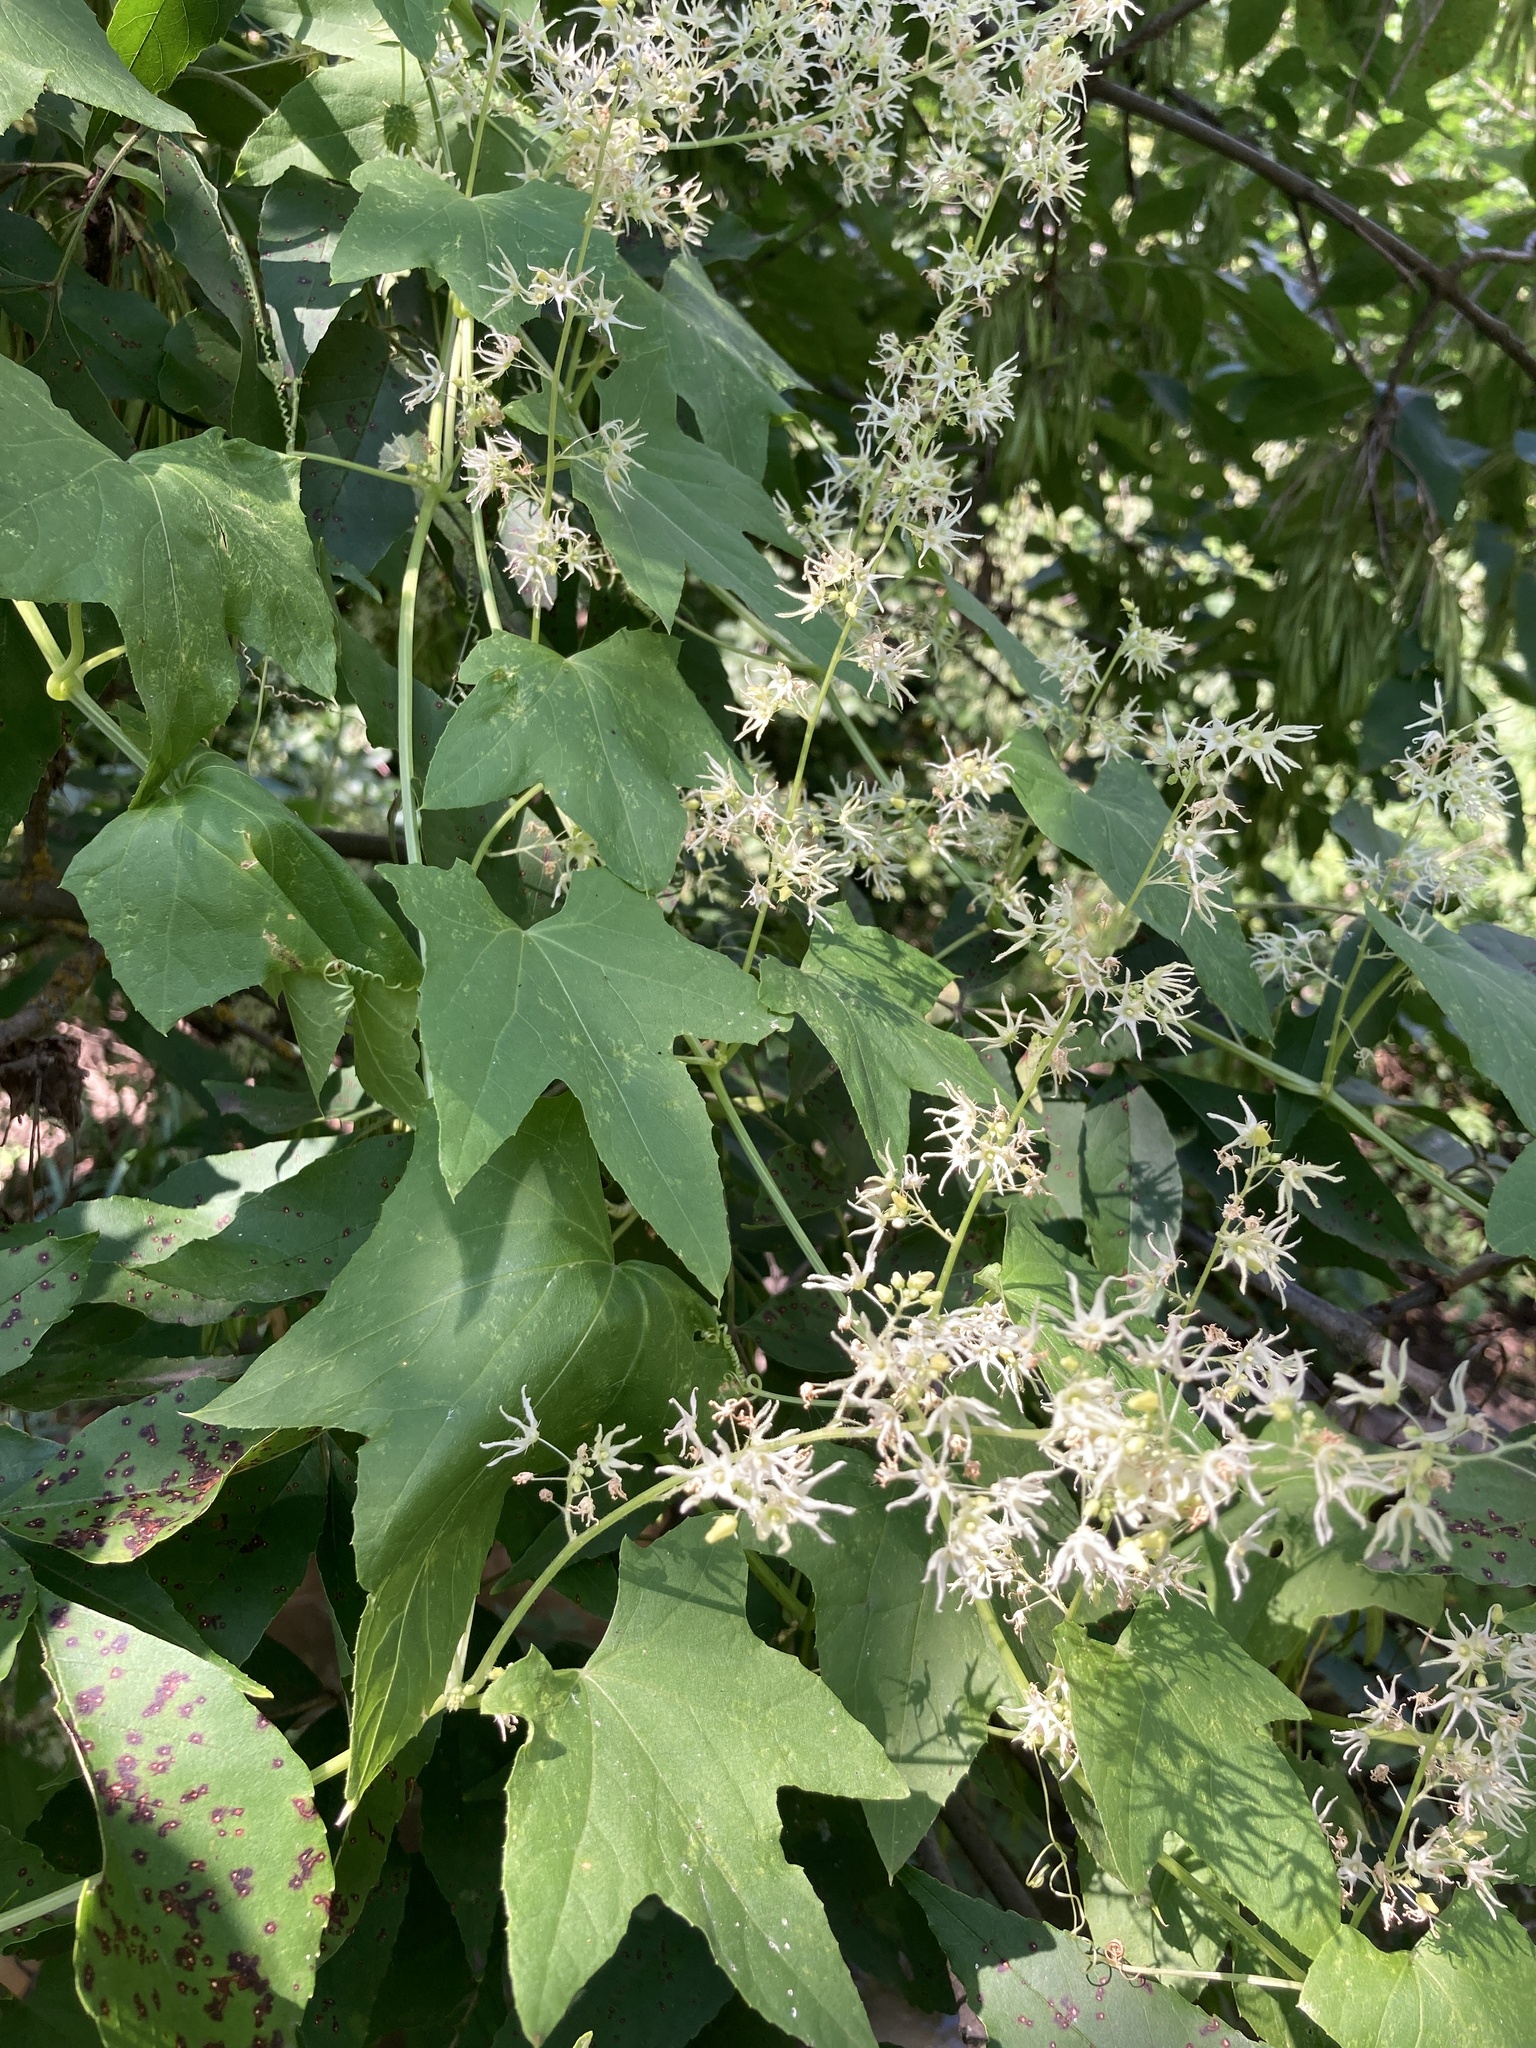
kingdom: Plantae
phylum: Tracheophyta
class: Magnoliopsida
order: Cucurbitales
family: Cucurbitaceae
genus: Echinocystis
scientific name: Echinocystis lobata
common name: Wild cucumber
